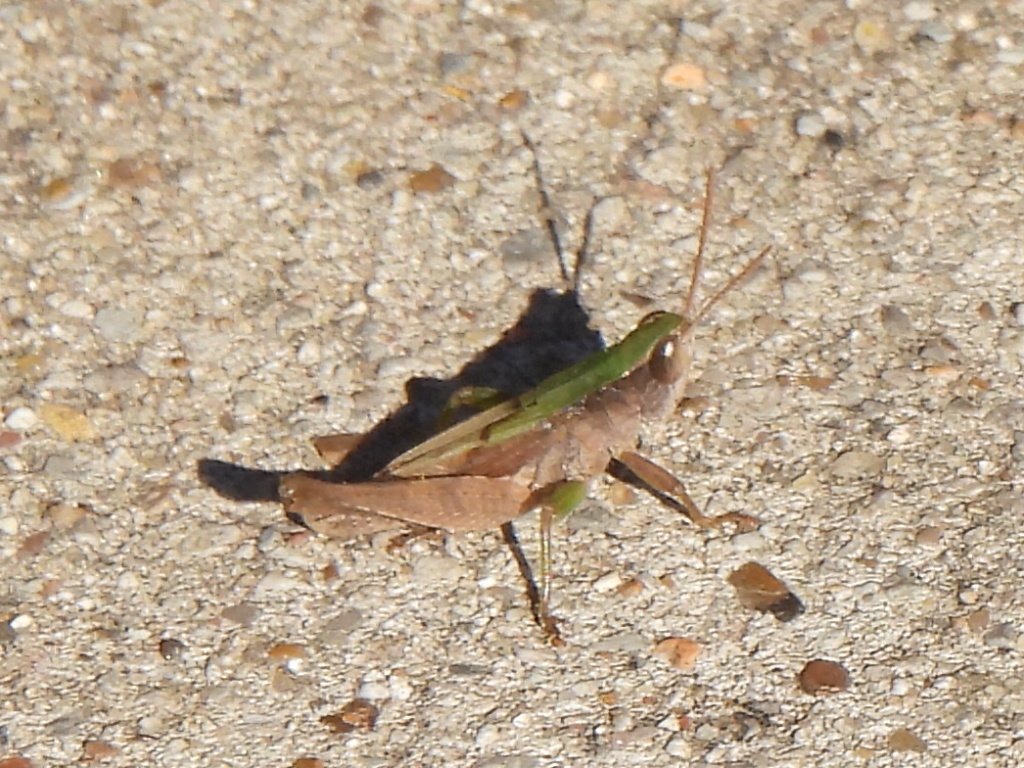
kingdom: Animalia
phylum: Arthropoda
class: Insecta
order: Orthoptera
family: Acrididae
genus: Dichromorpha
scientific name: Dichromorpha viridis
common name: Short-winged green grasshopper
